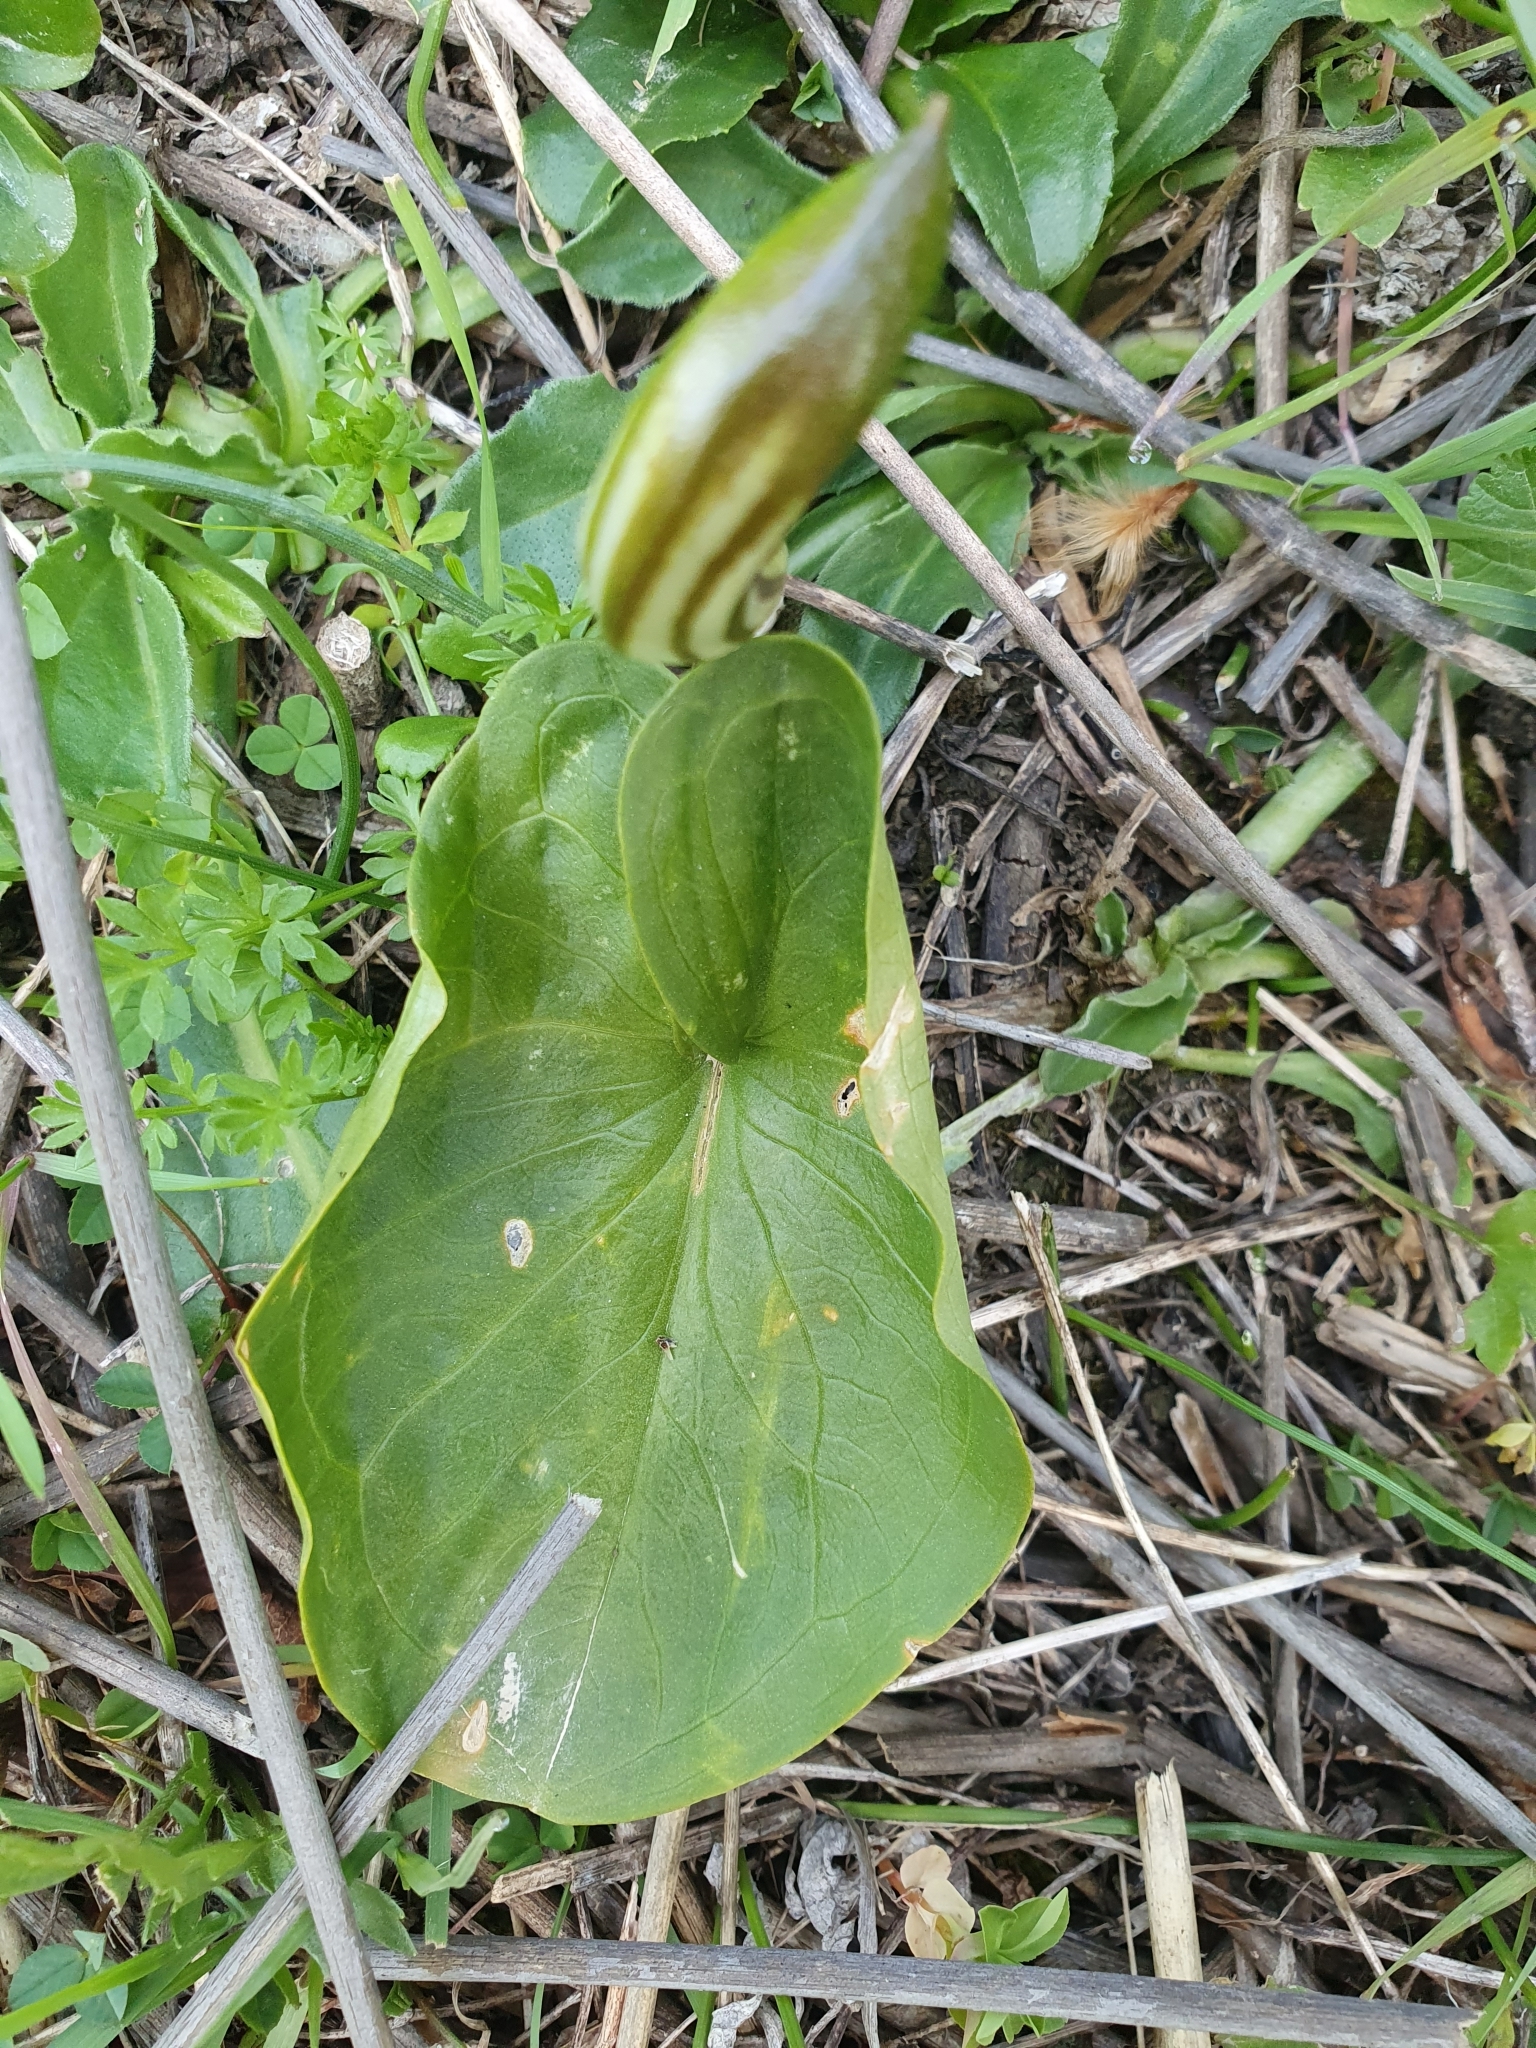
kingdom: Plantae
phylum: Tracheophyta
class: Liliopsida
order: Alismatales
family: Araceae
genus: Arisarum
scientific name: Arisarum vulgare
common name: Common arisarum
